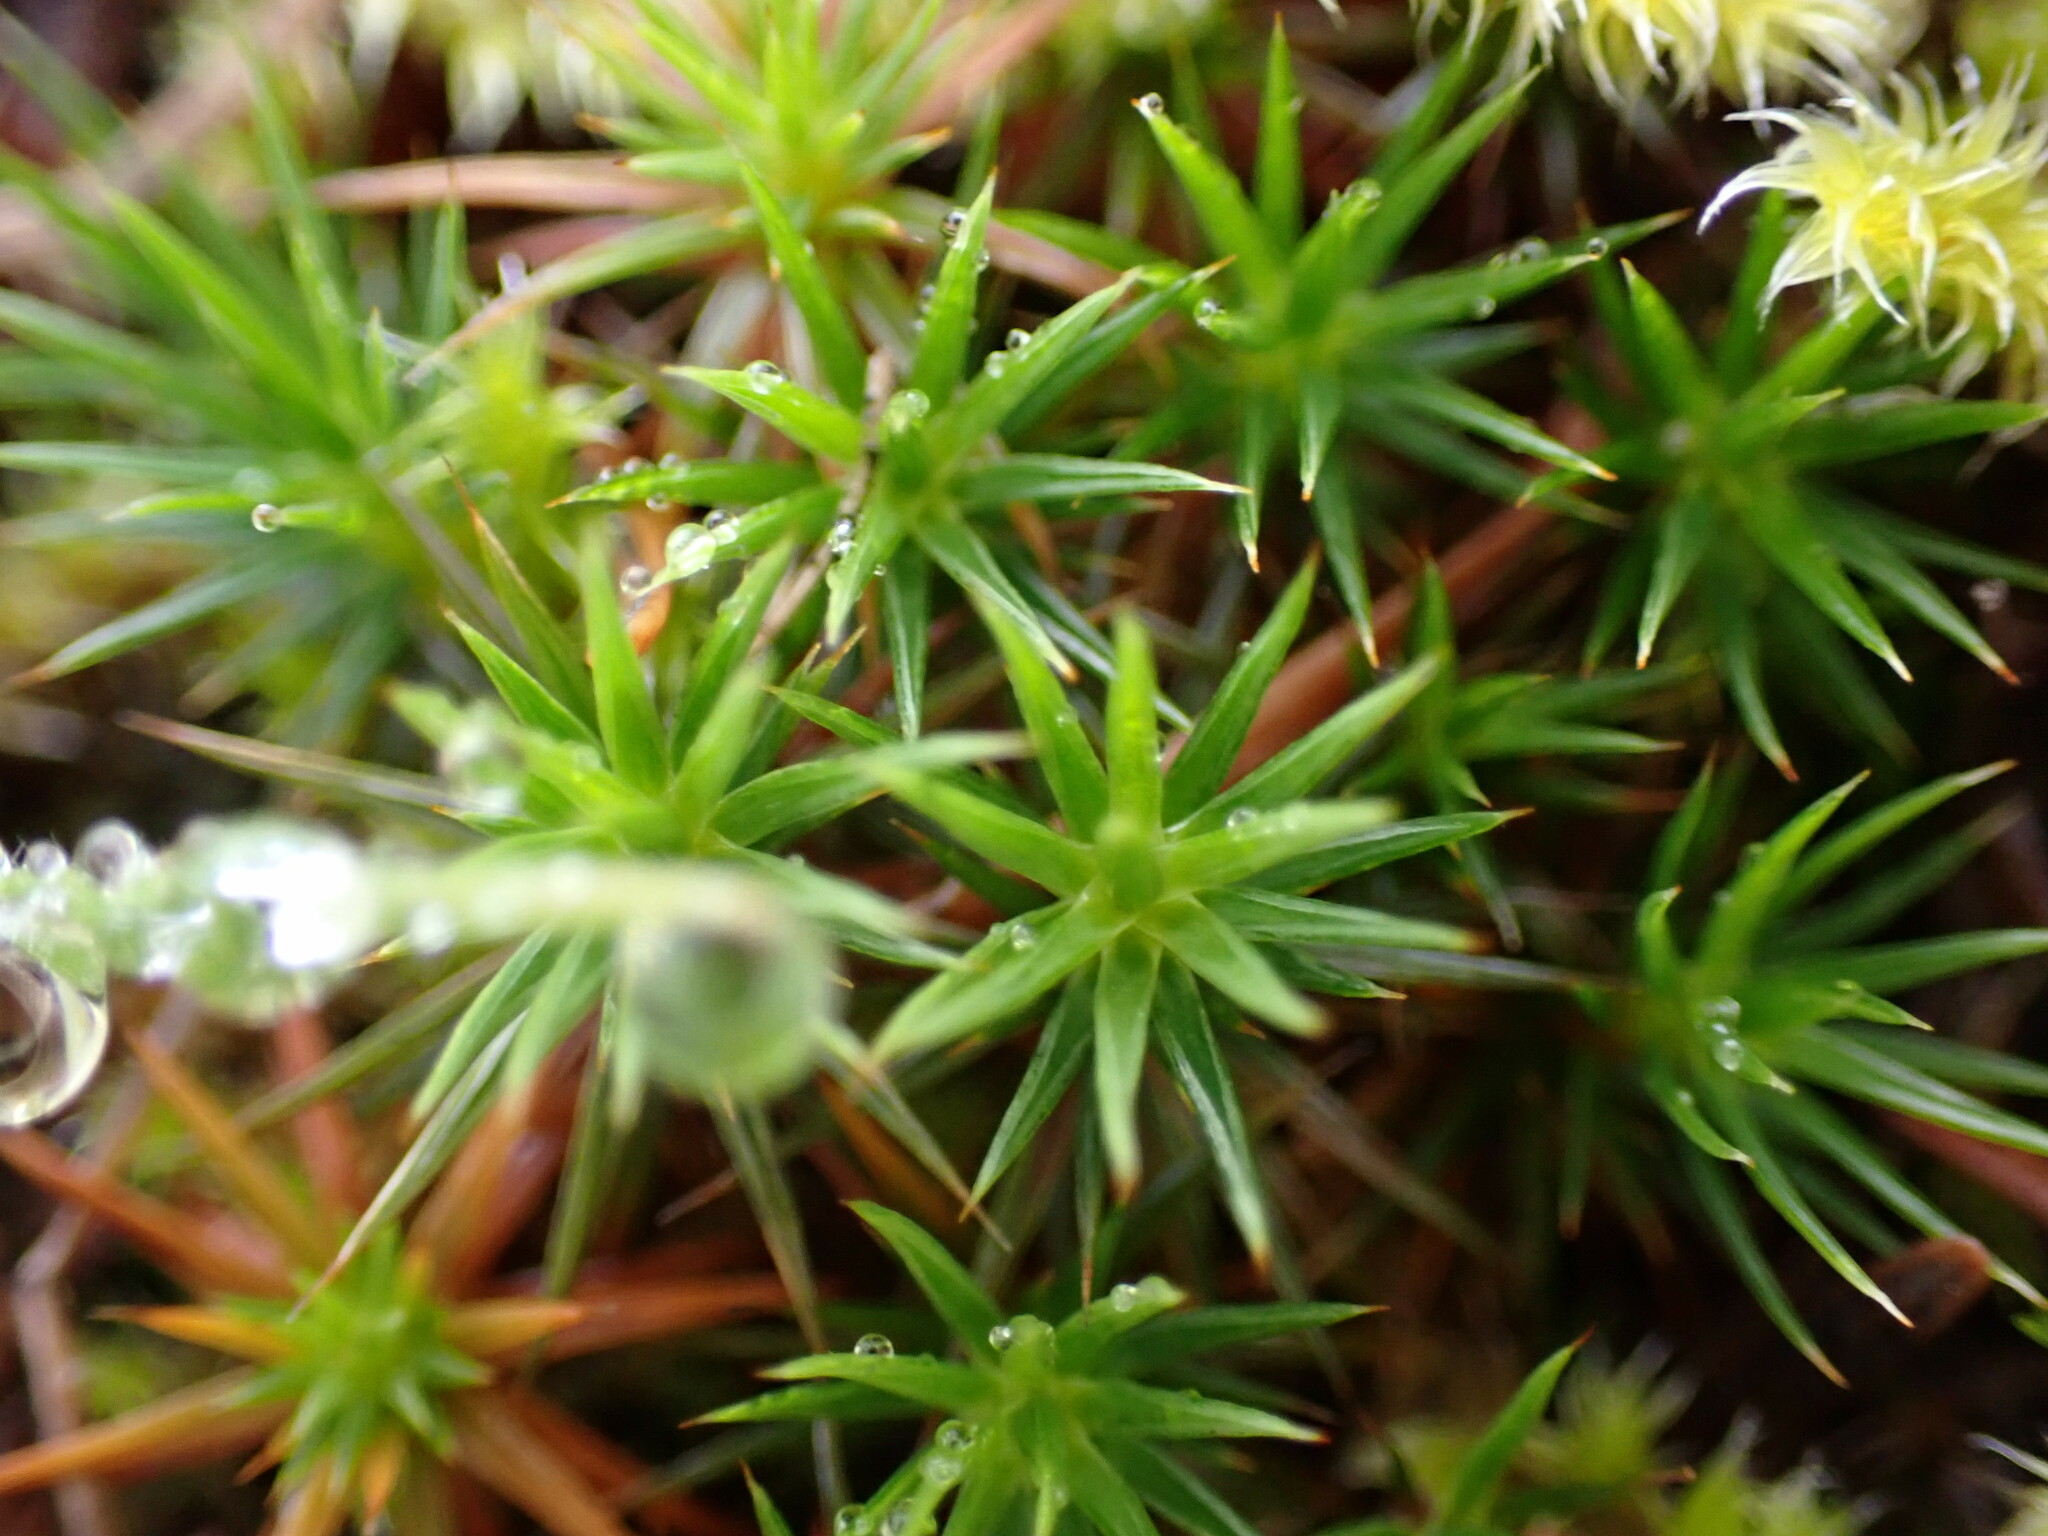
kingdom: Plantae
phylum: Bryophyta
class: Polytrichopsida
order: Polytrichales
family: Polytrichaceae
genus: Polytrichum
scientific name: Polytrichum juniperinum
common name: Juniper haircap moss
